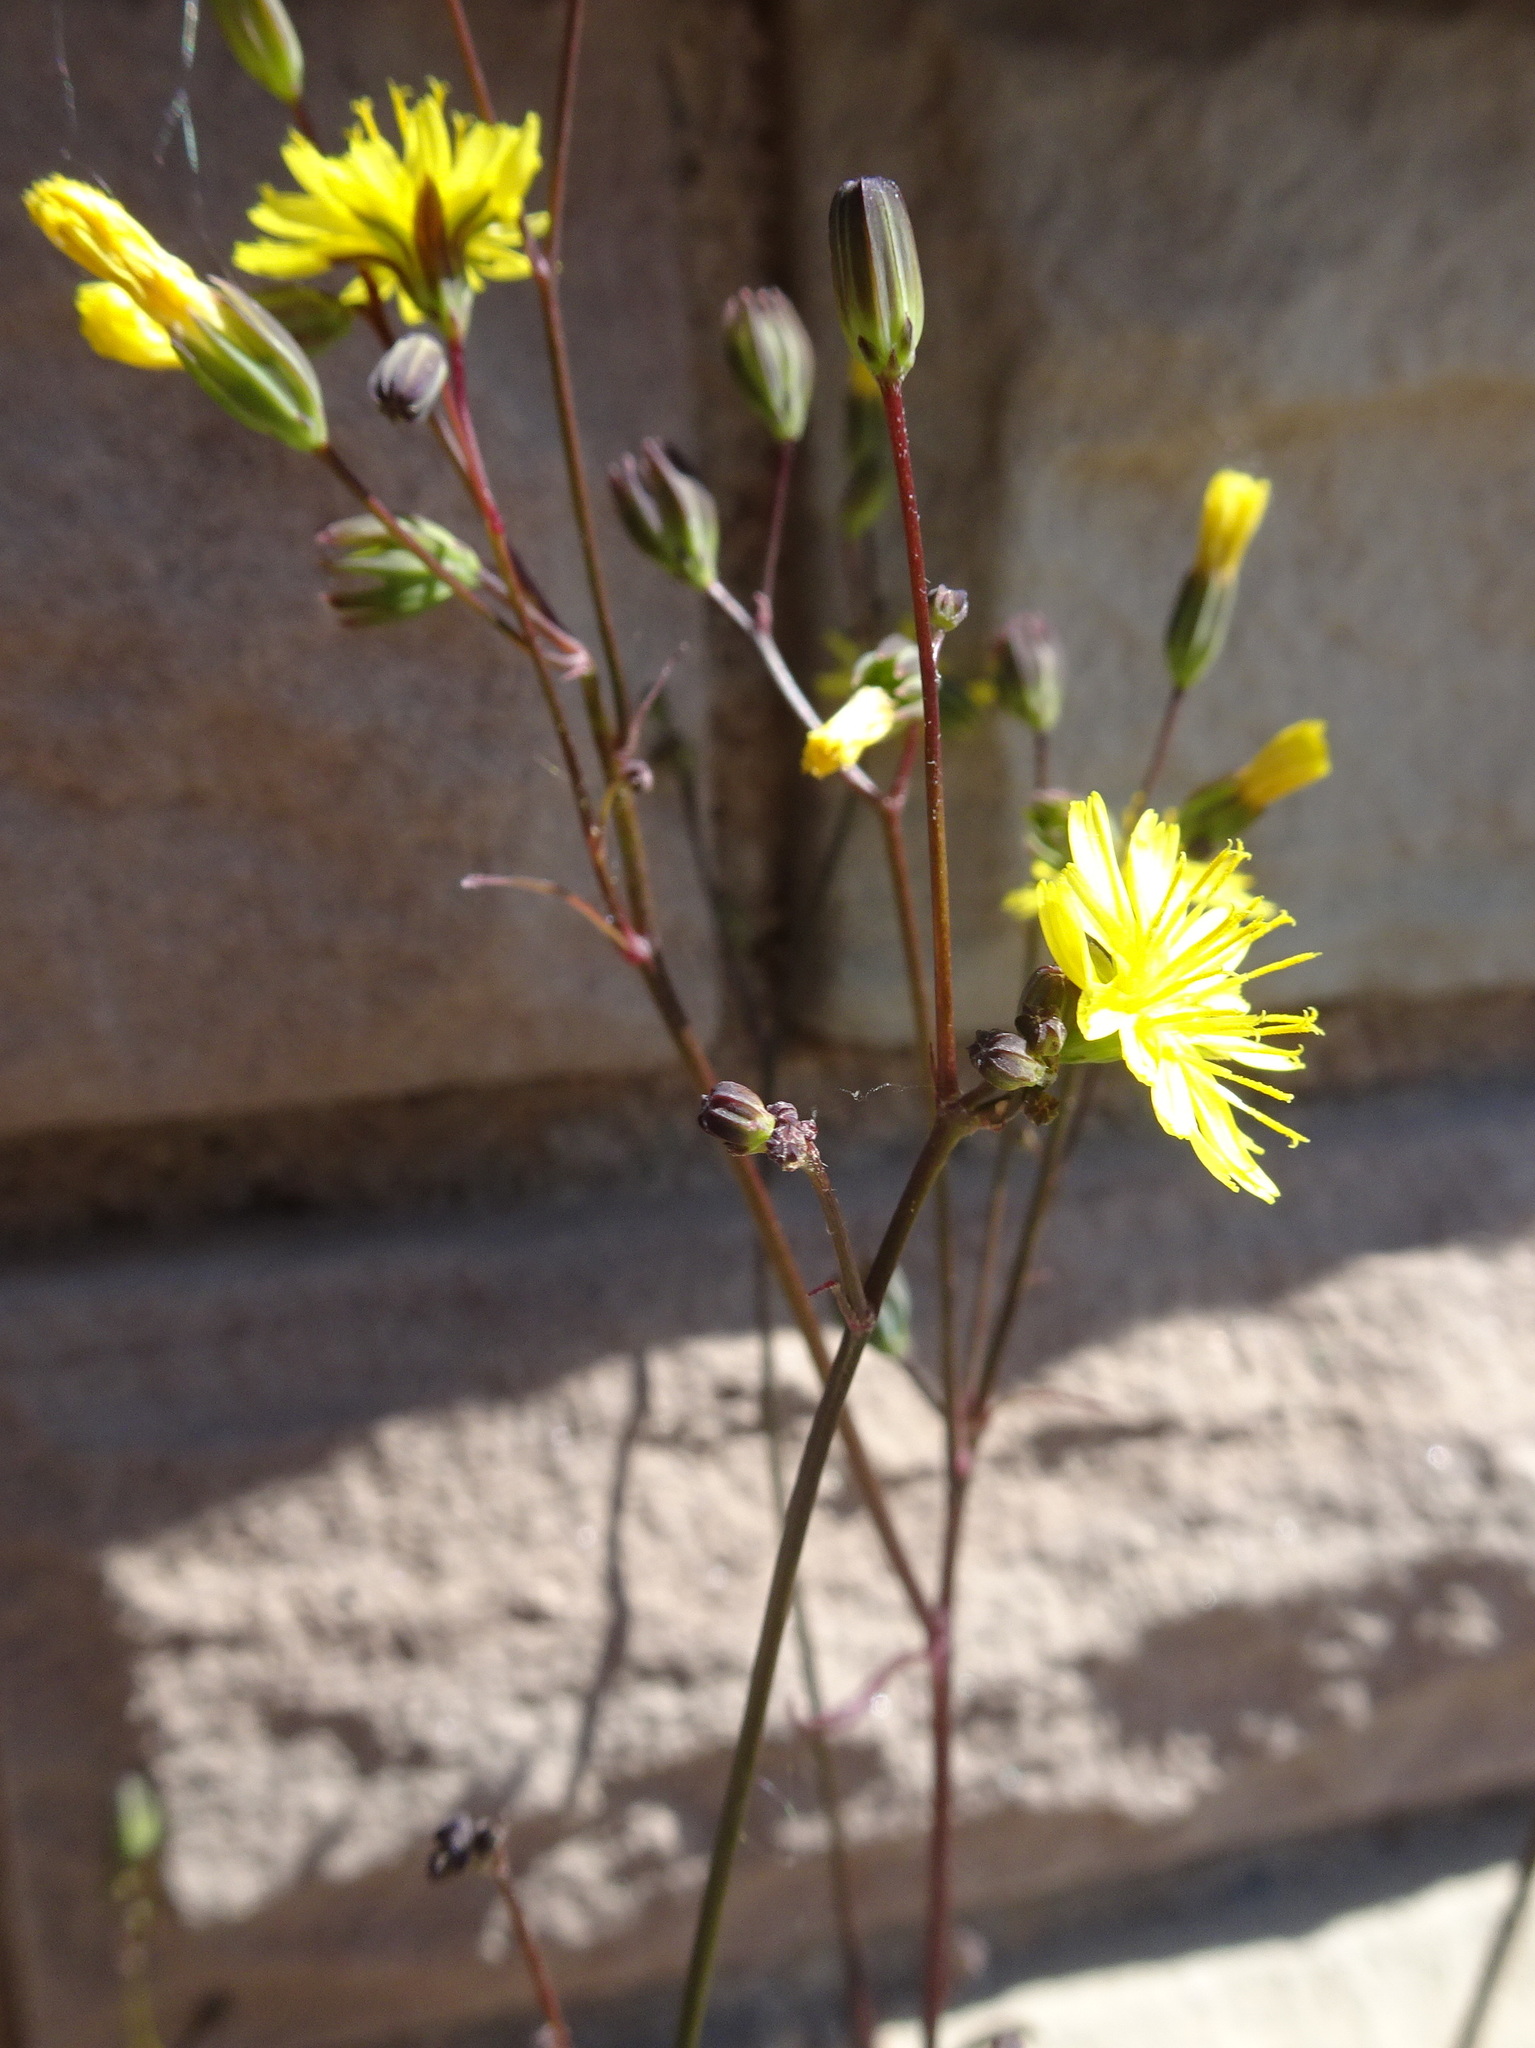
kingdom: Plantae
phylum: Tracheophyta
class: Magnoliopsida
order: Asterales
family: Asteraceae
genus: Lapsana
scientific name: Lapsana communis
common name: Nipplewort
